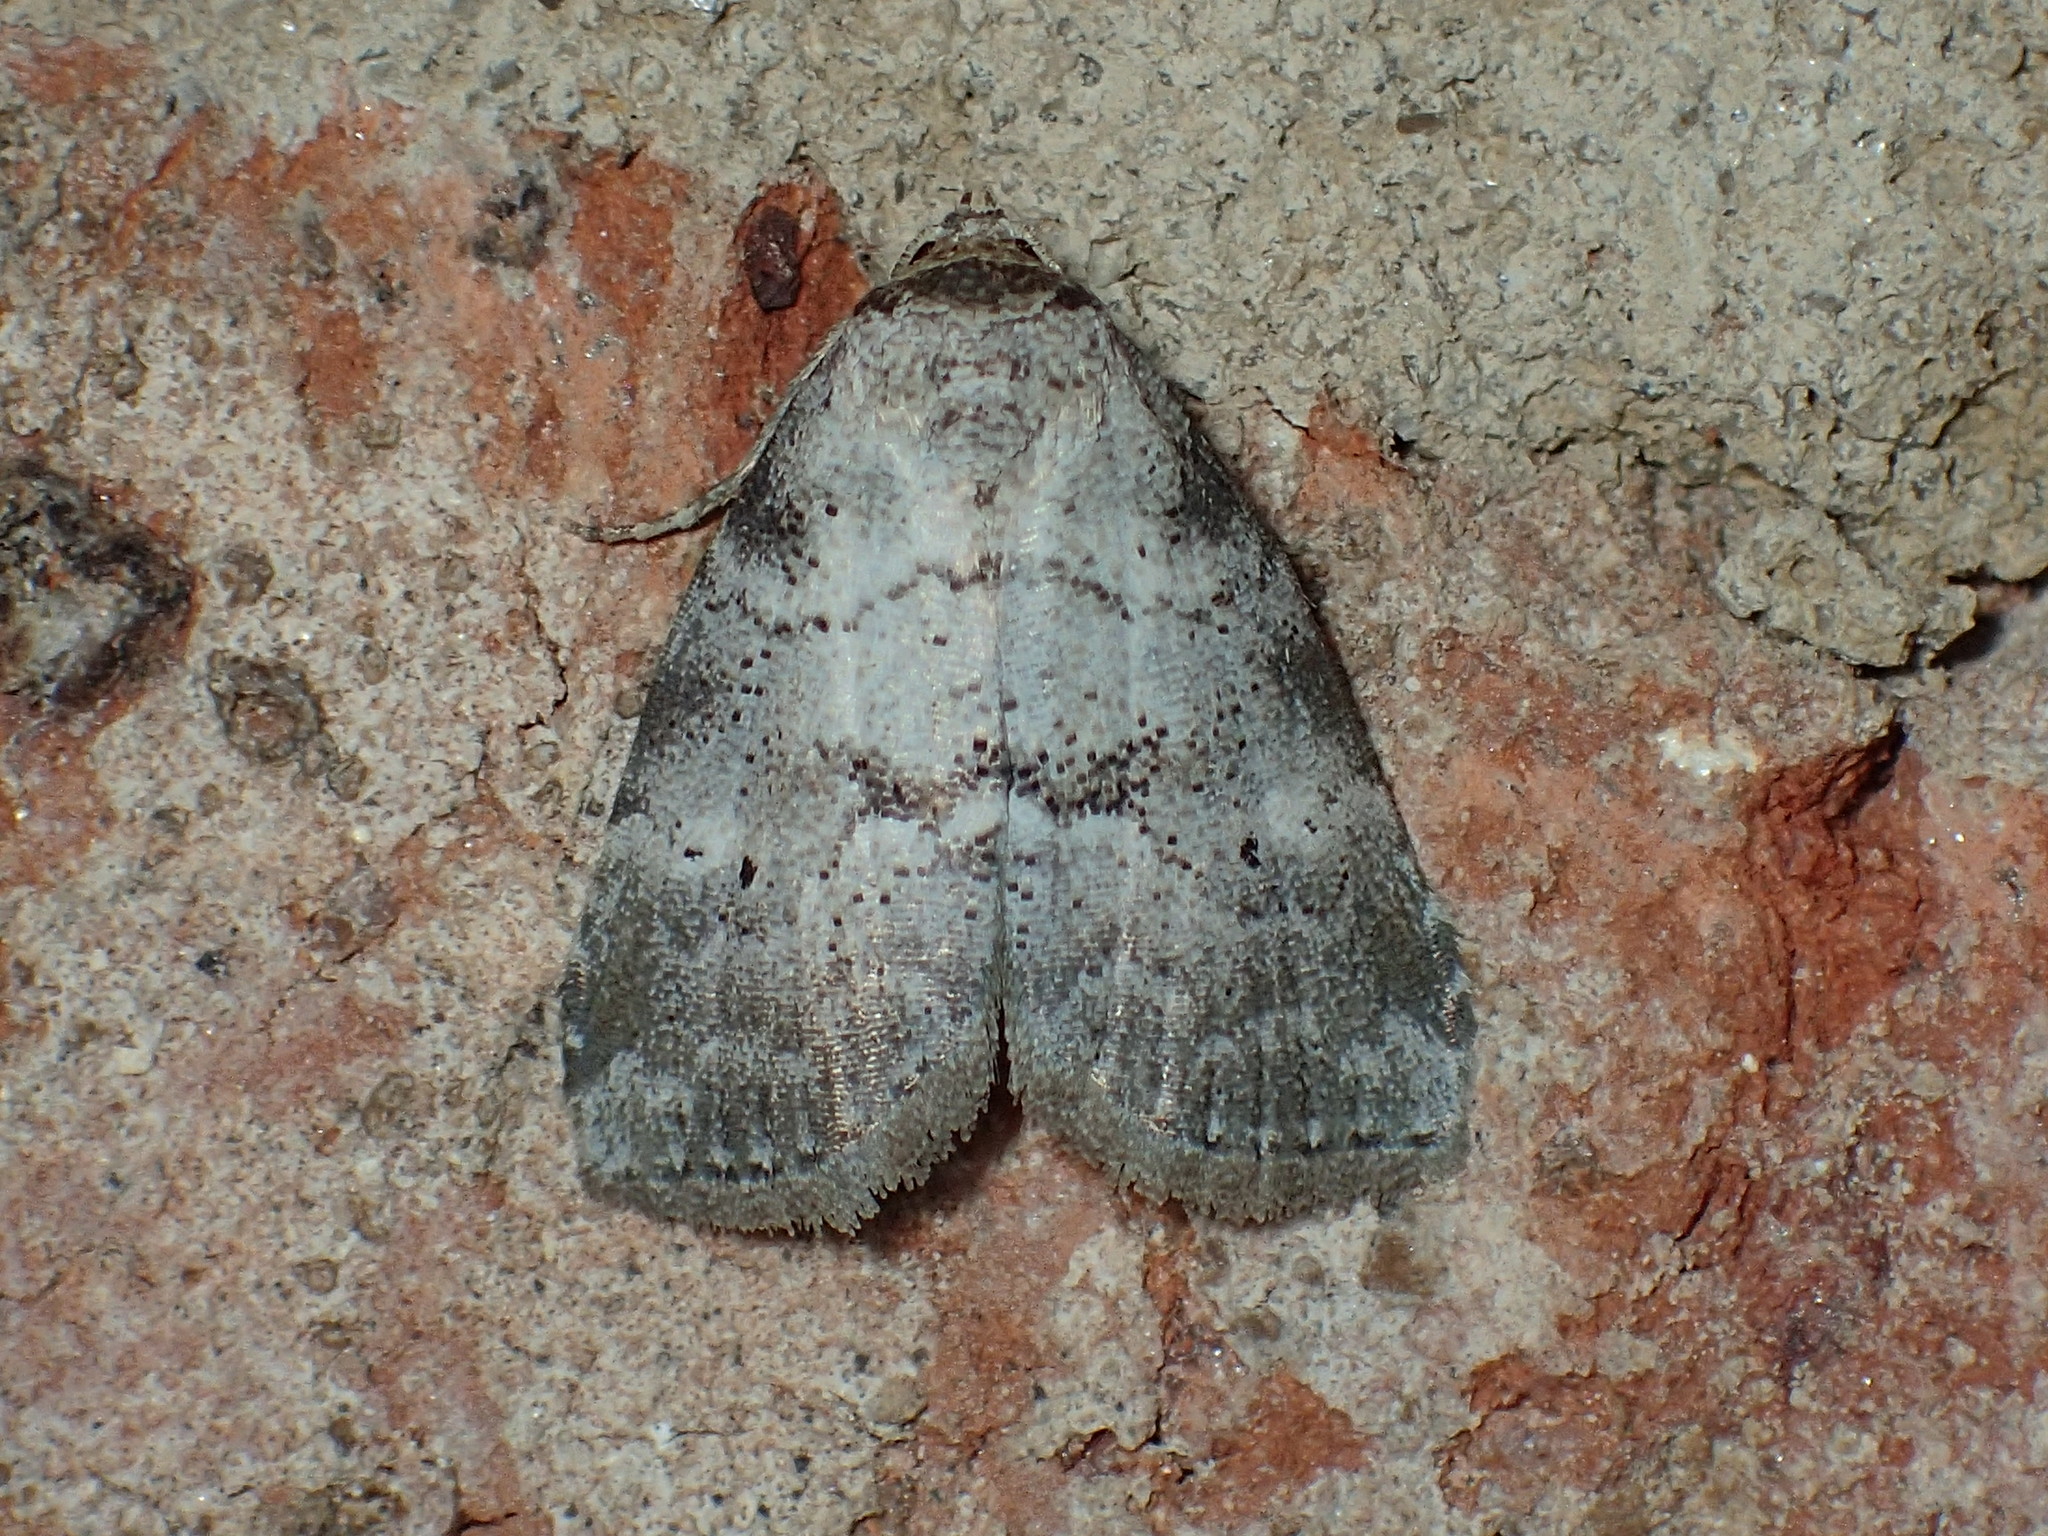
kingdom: Animalia
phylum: Arthropoda
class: Insecta
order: Lepidoptera
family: Erebidae
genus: Hyperstrotia
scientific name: Hyperstrotia pervertens
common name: Dotted graylet
